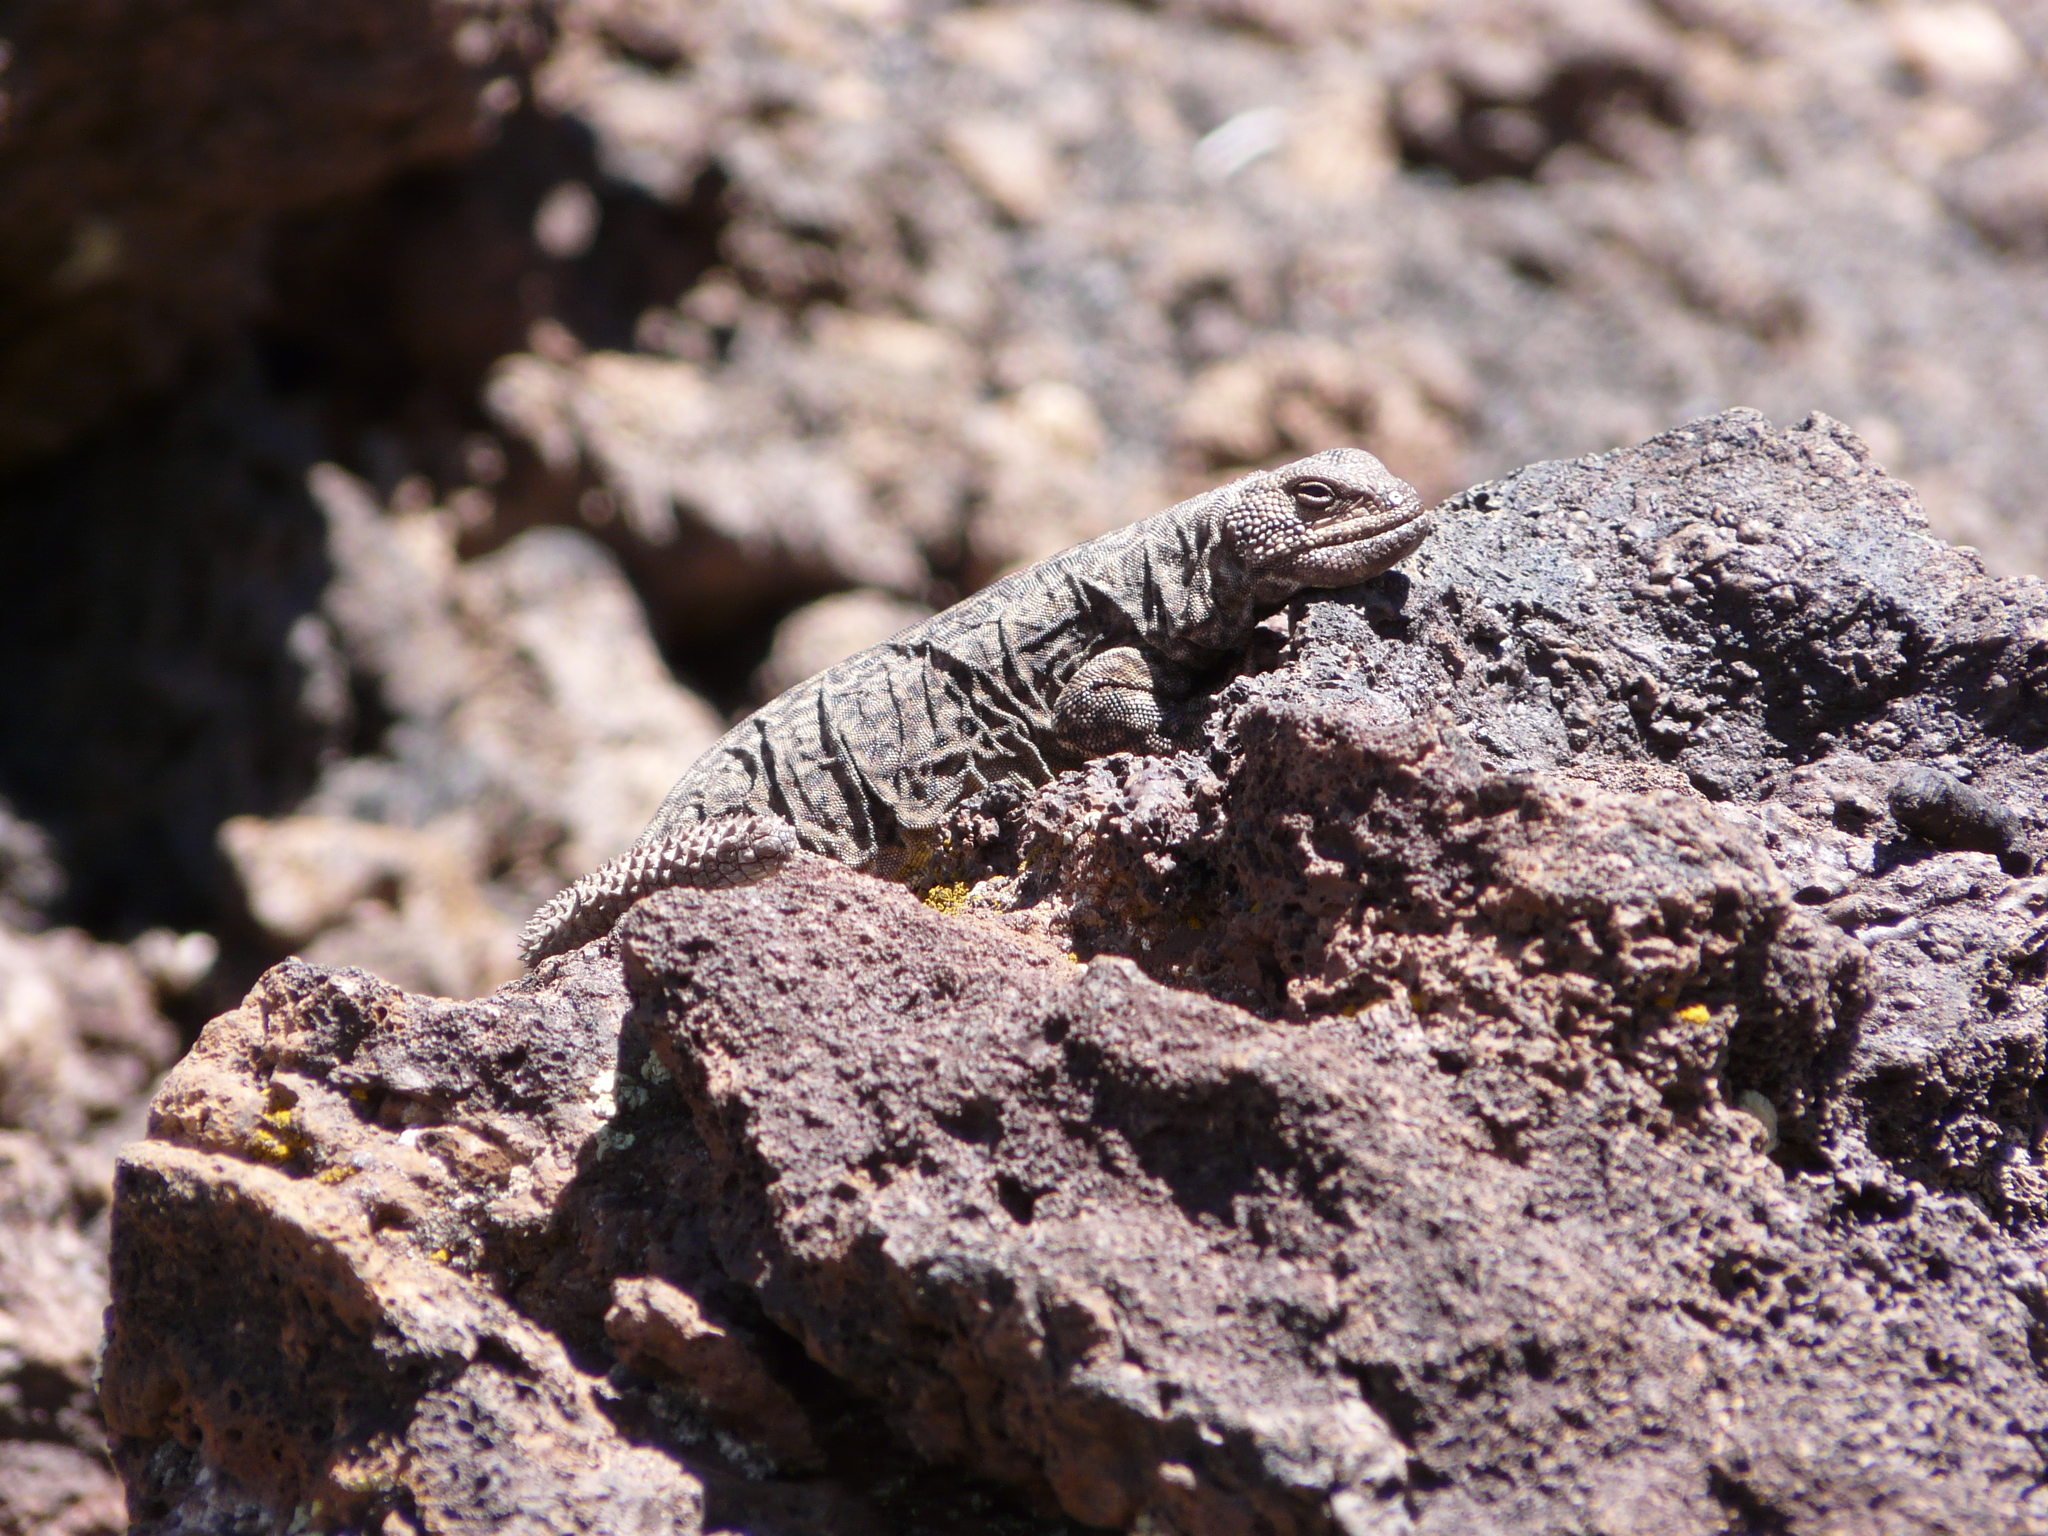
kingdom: Animalia
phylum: Chordata
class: Squamata
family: Liolaemidae
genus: Phymaturus
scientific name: Phymaturus roigorum
